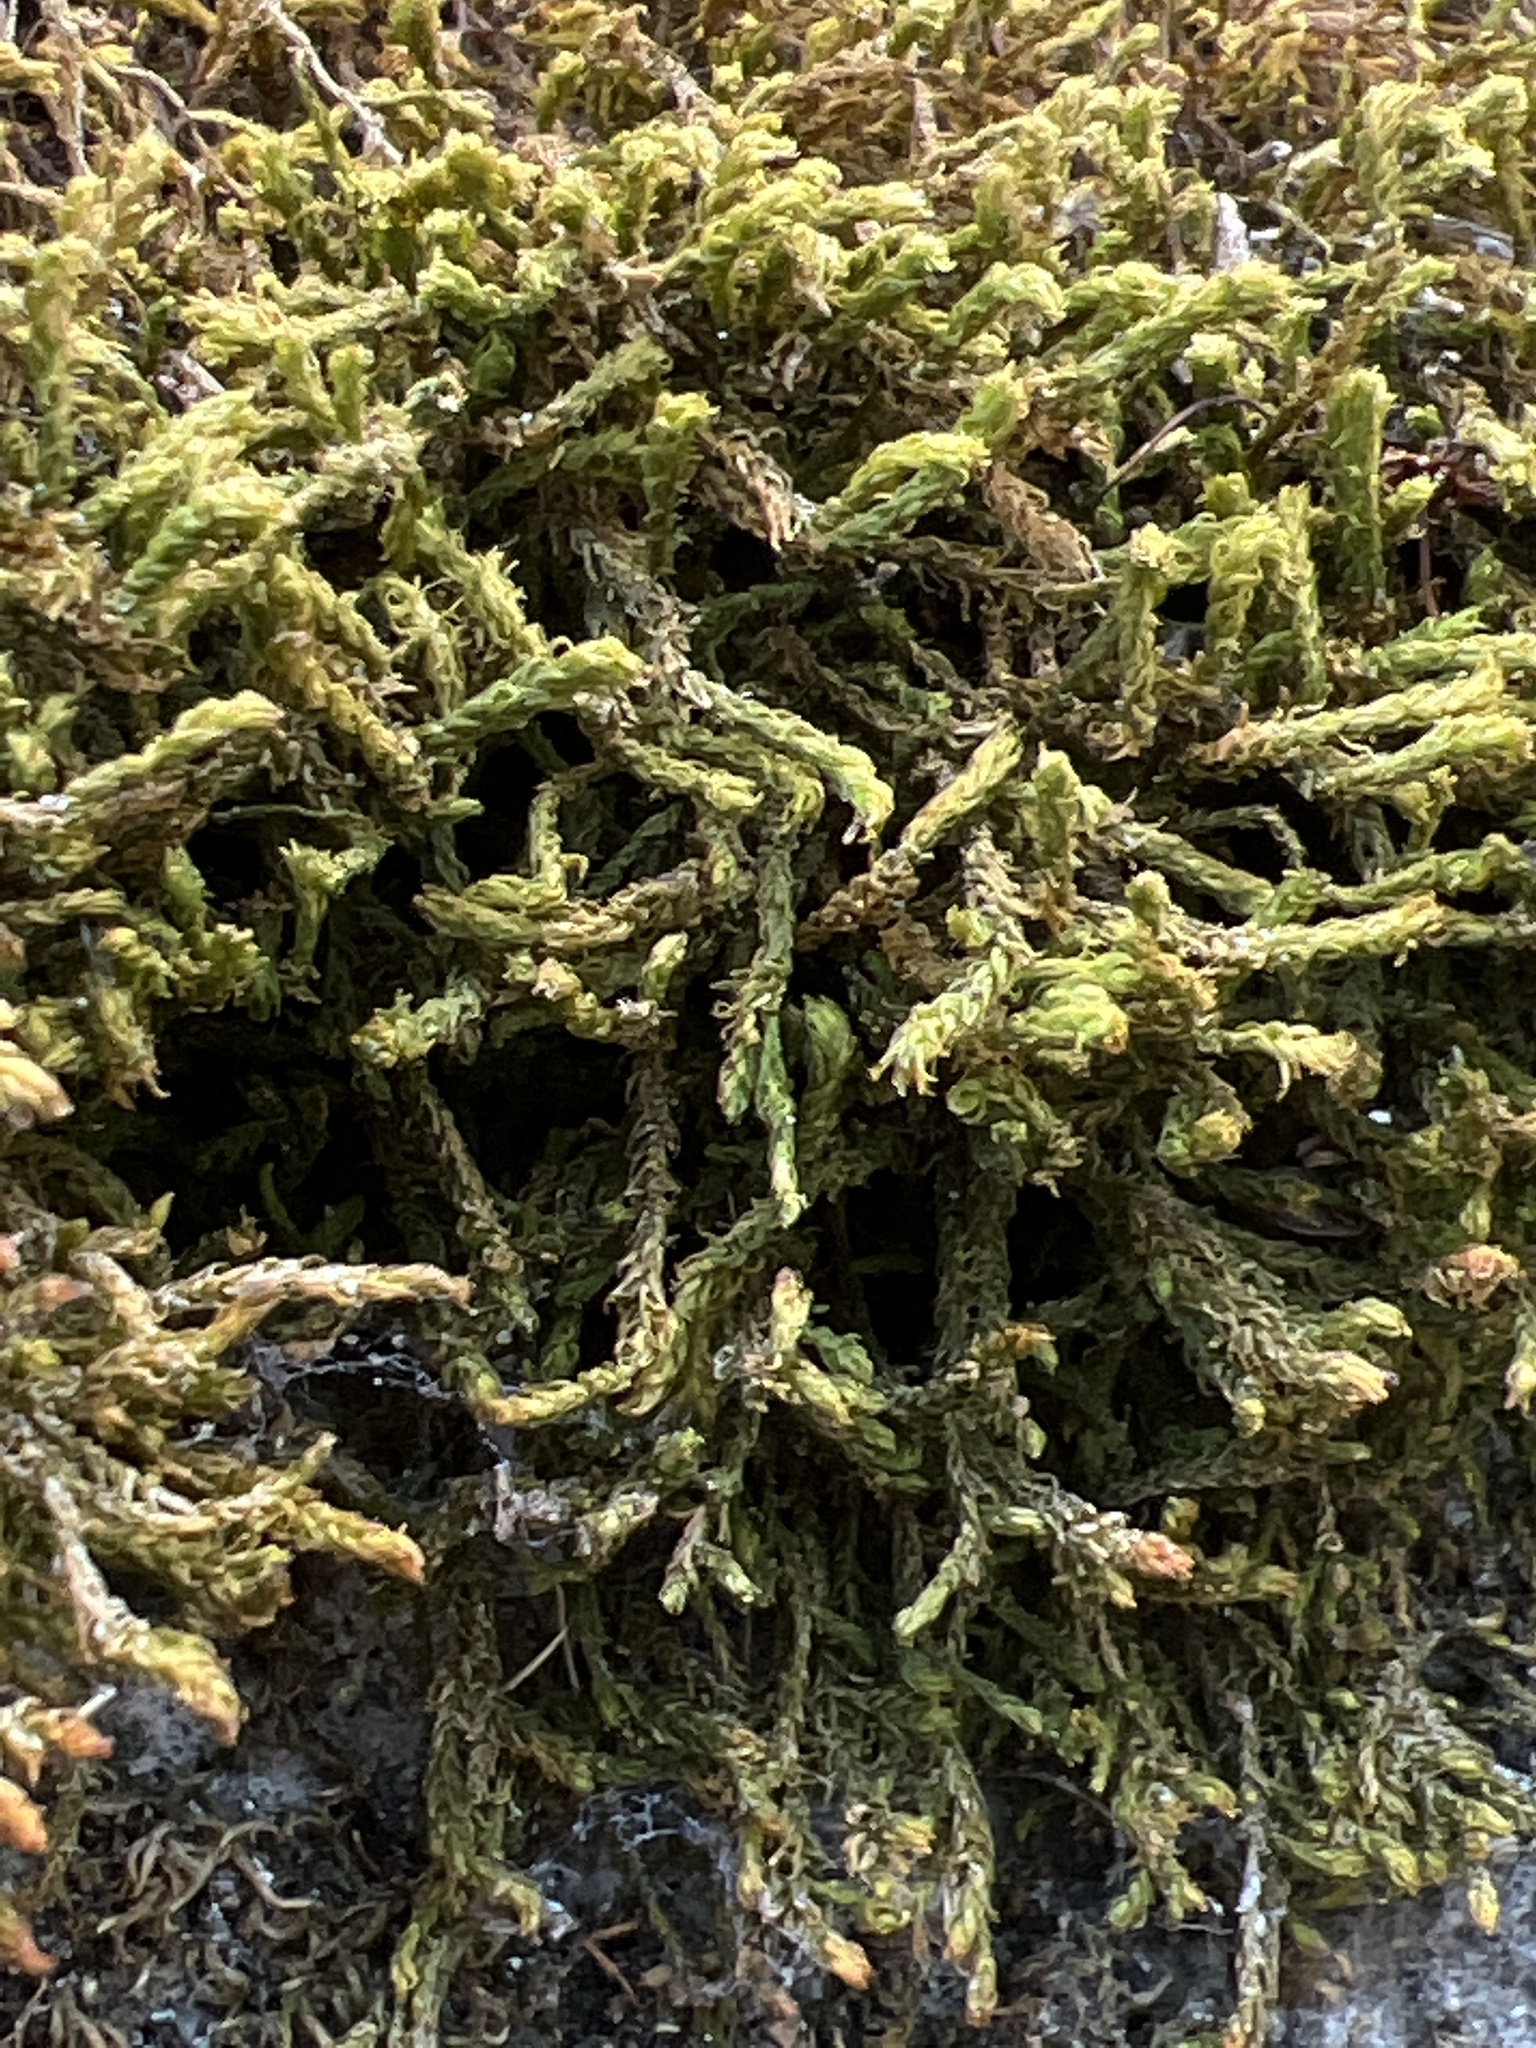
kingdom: Plantae
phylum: Bryophyta
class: Bryopsida
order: Hypnales
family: Anomodontaceae
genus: Anomodon
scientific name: Anomodon viticulosus
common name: Tall anomodon
